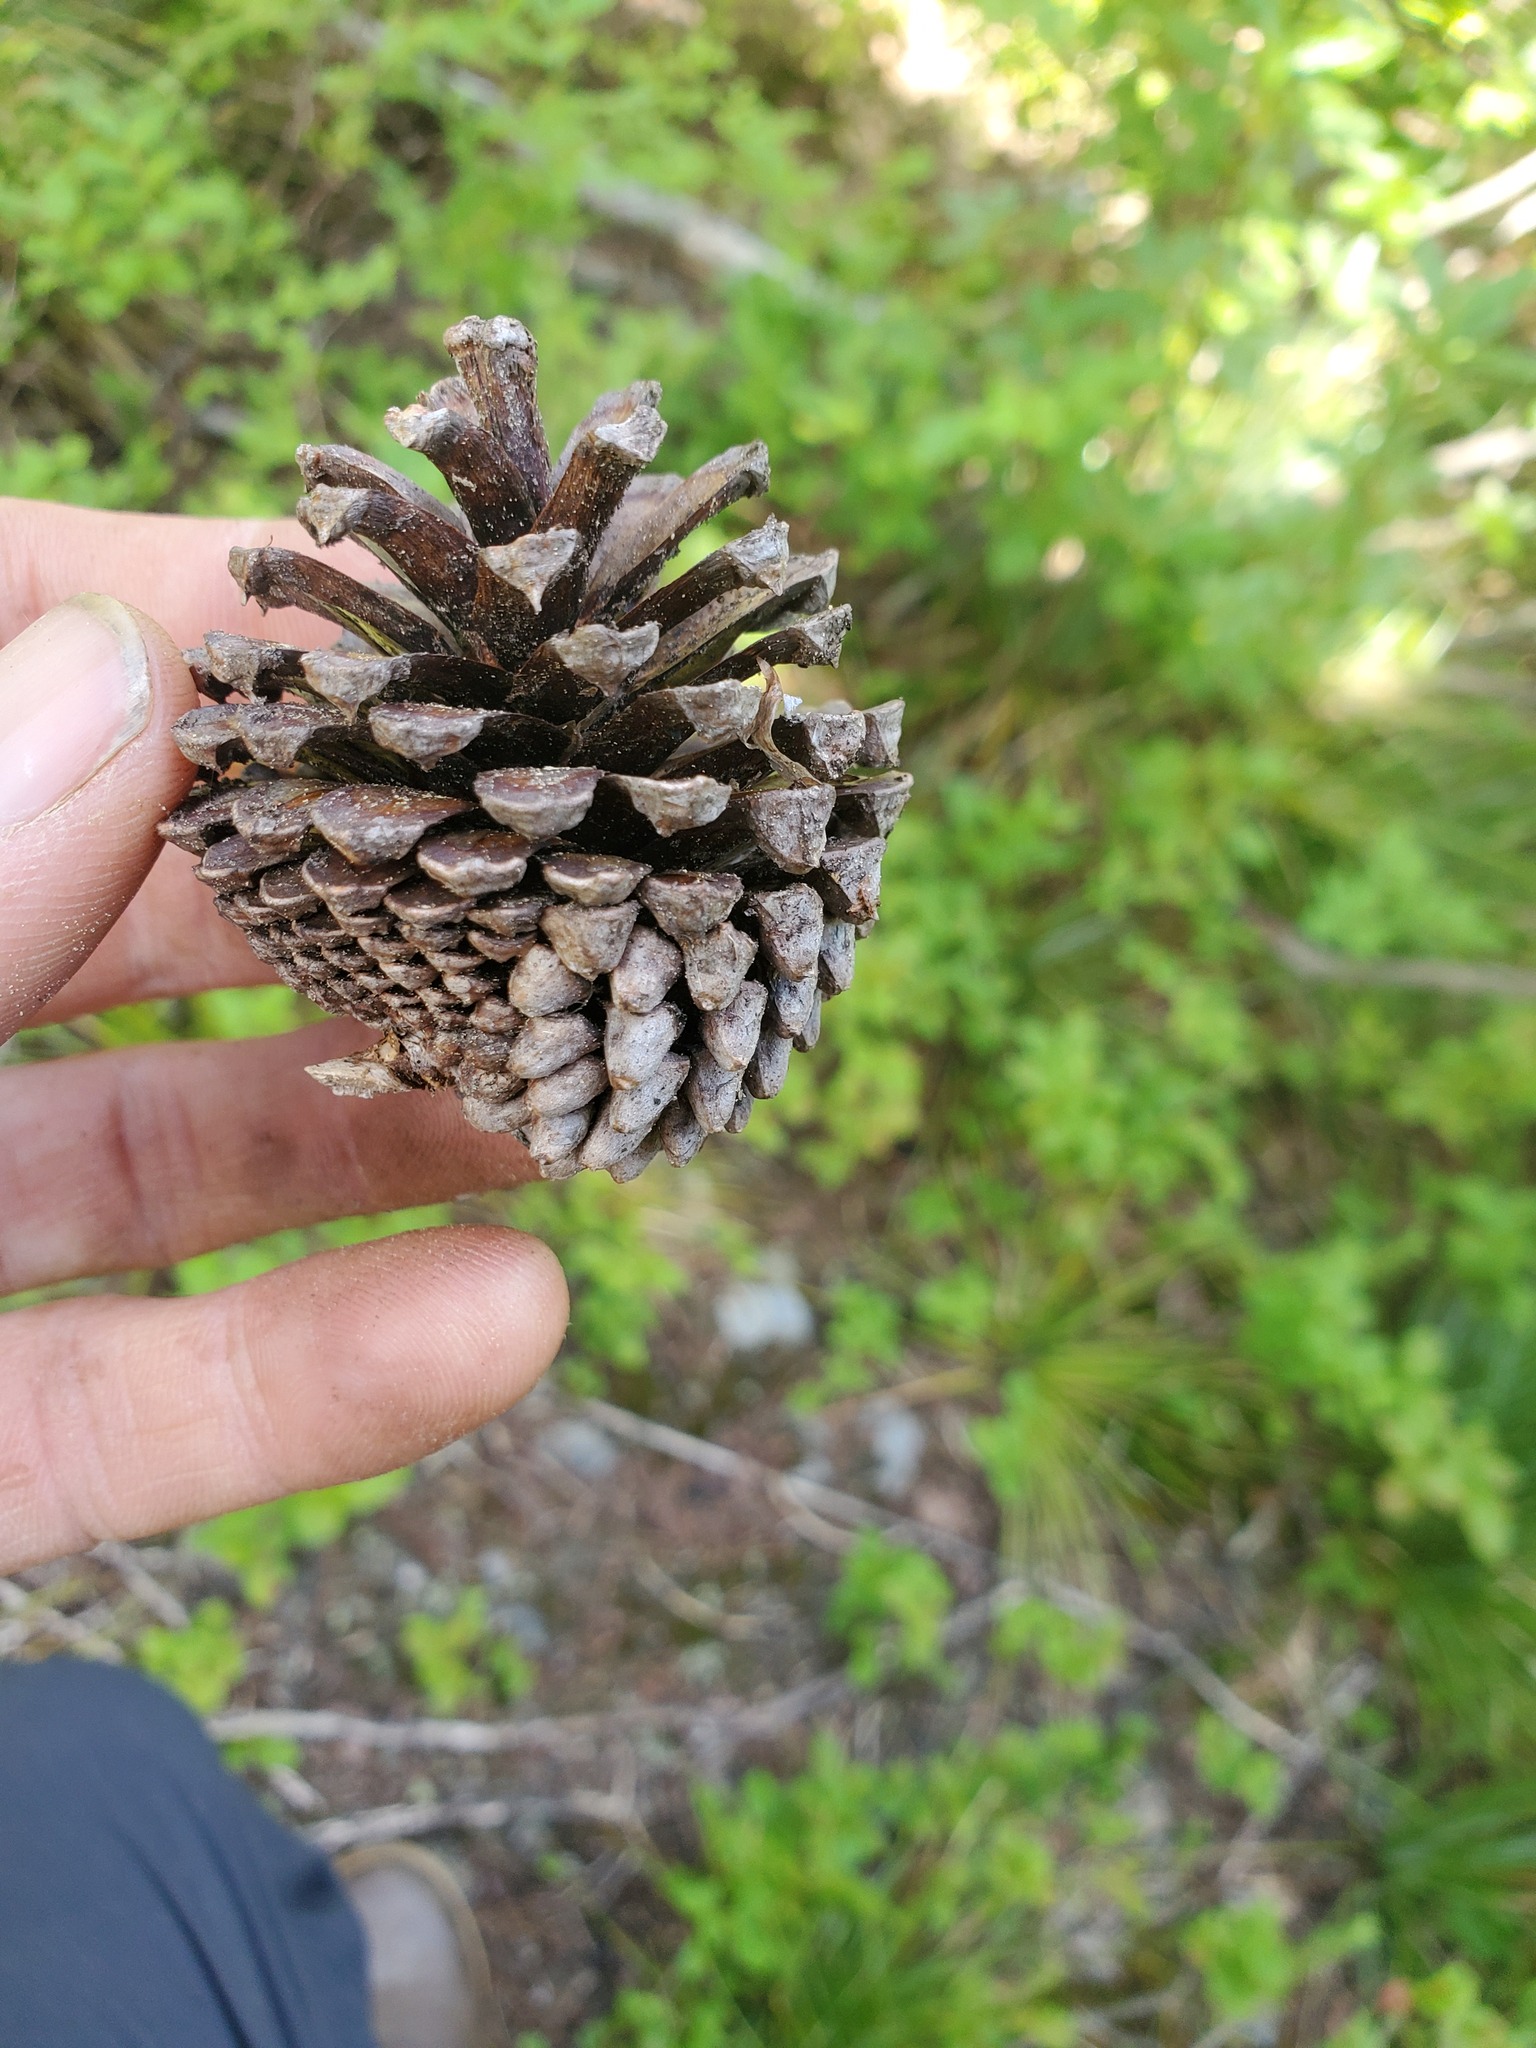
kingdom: Plantae
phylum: Tracheophyta
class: Pinopsida
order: Pinales
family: Pinaceae
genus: Pinus
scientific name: Pinus contorta
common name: Lodgepole pine
